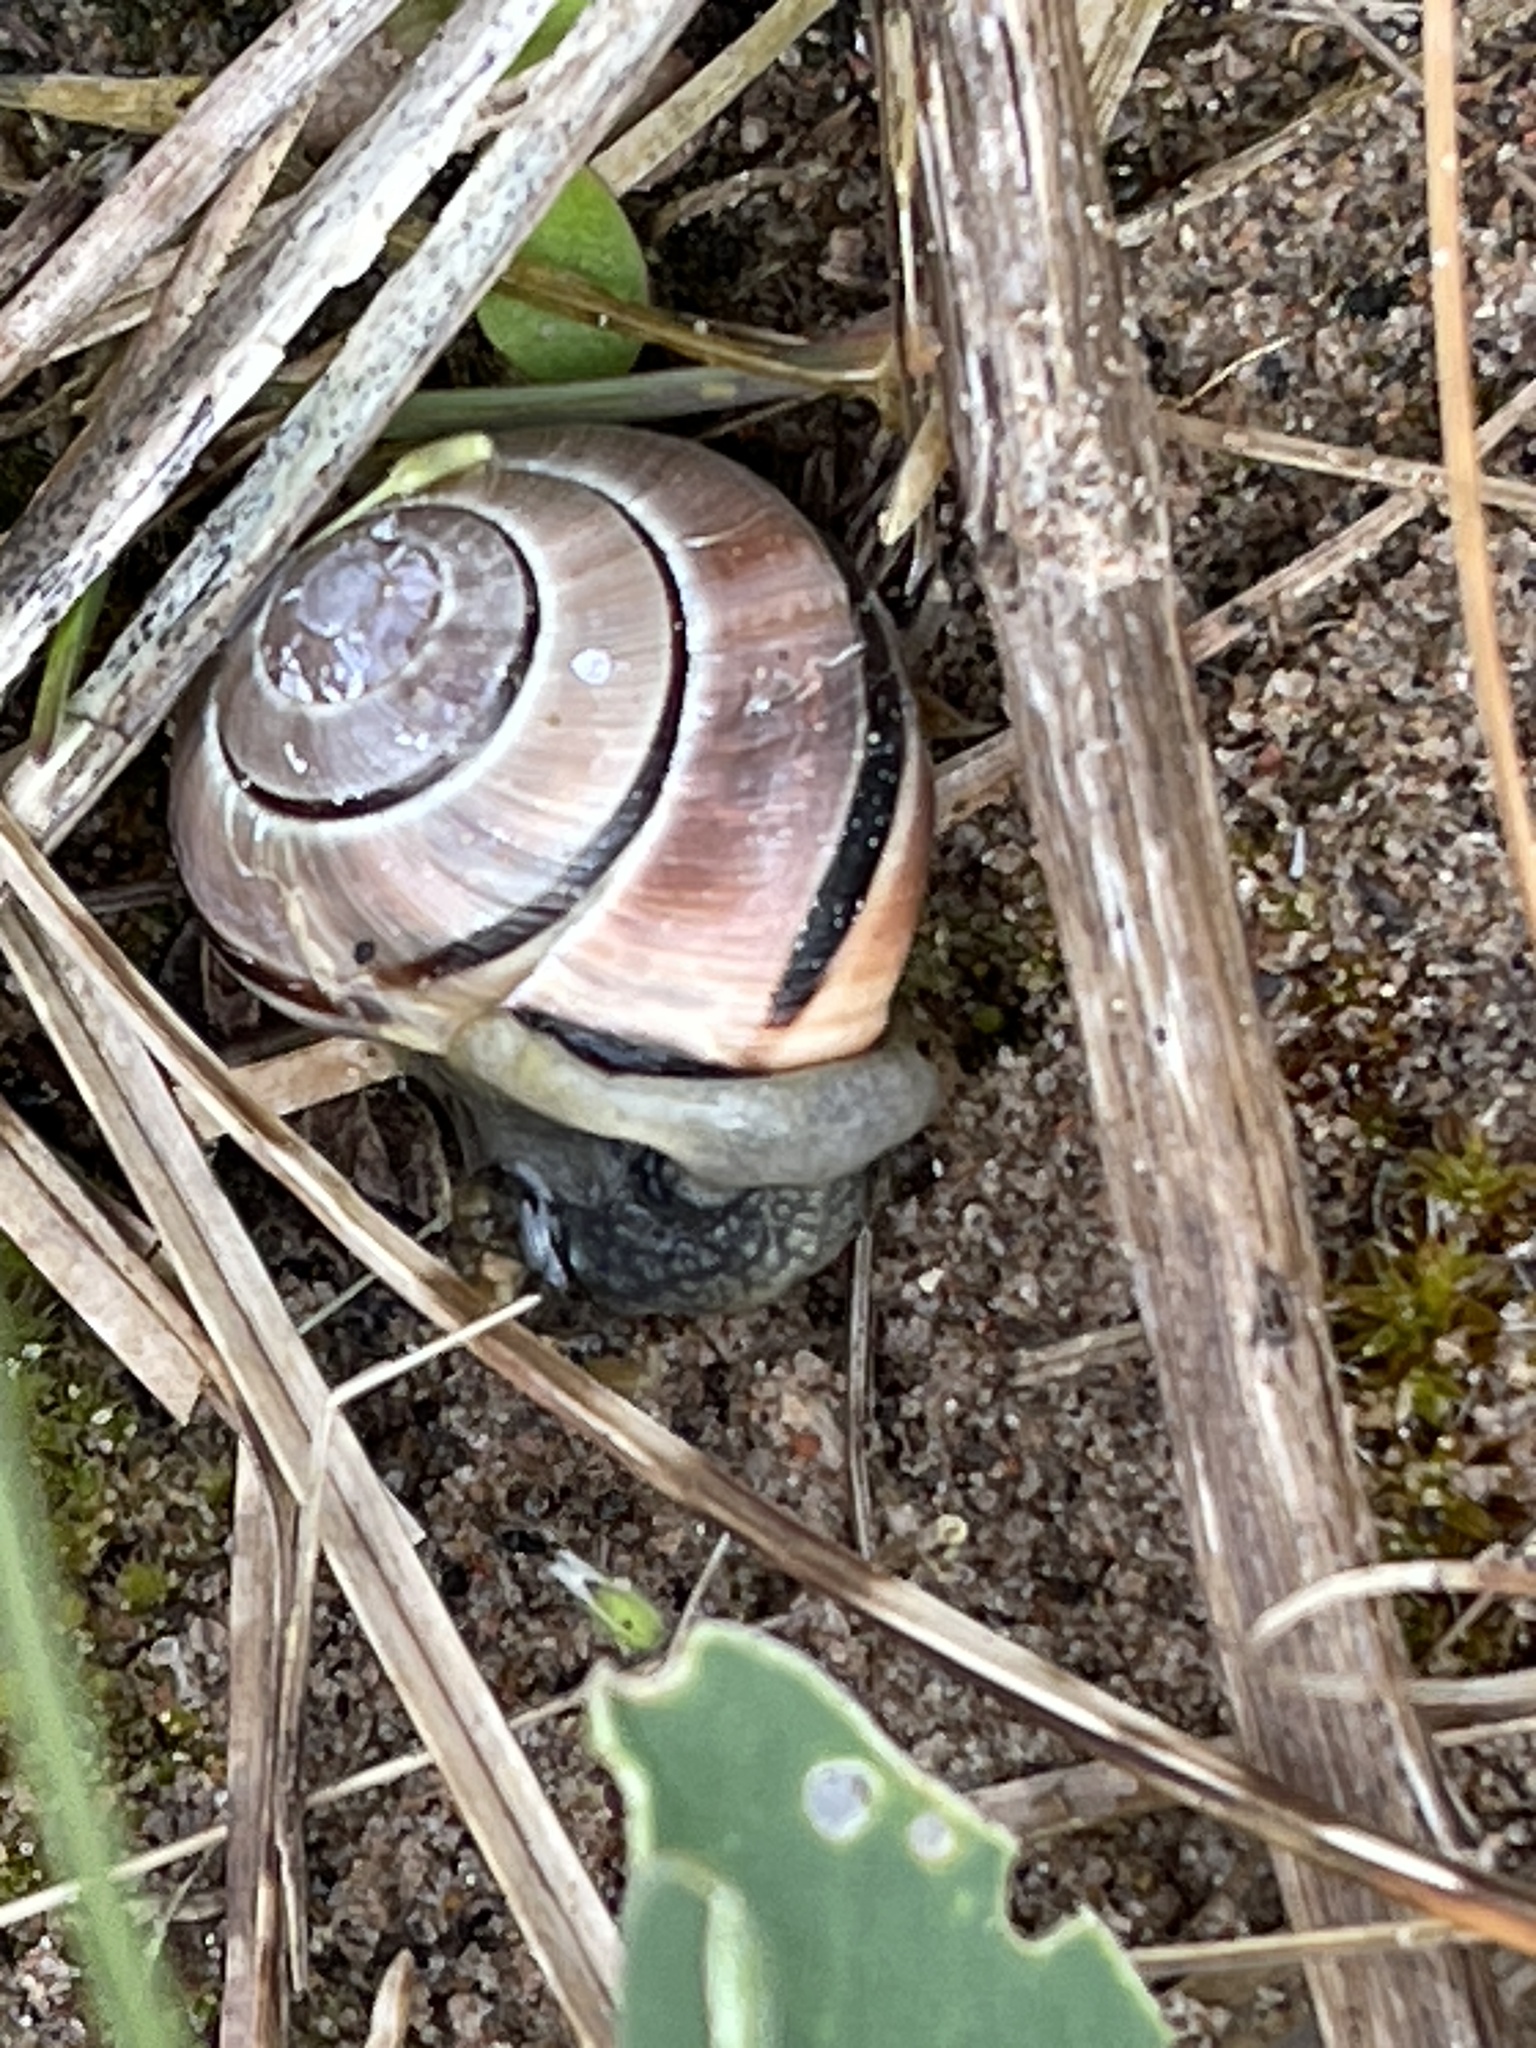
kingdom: Animalia
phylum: Mollusca
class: Gastropoda
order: Stylommatophora
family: Helicidae
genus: Cepaea
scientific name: Cepaea nemoralis
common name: Grovesnail
